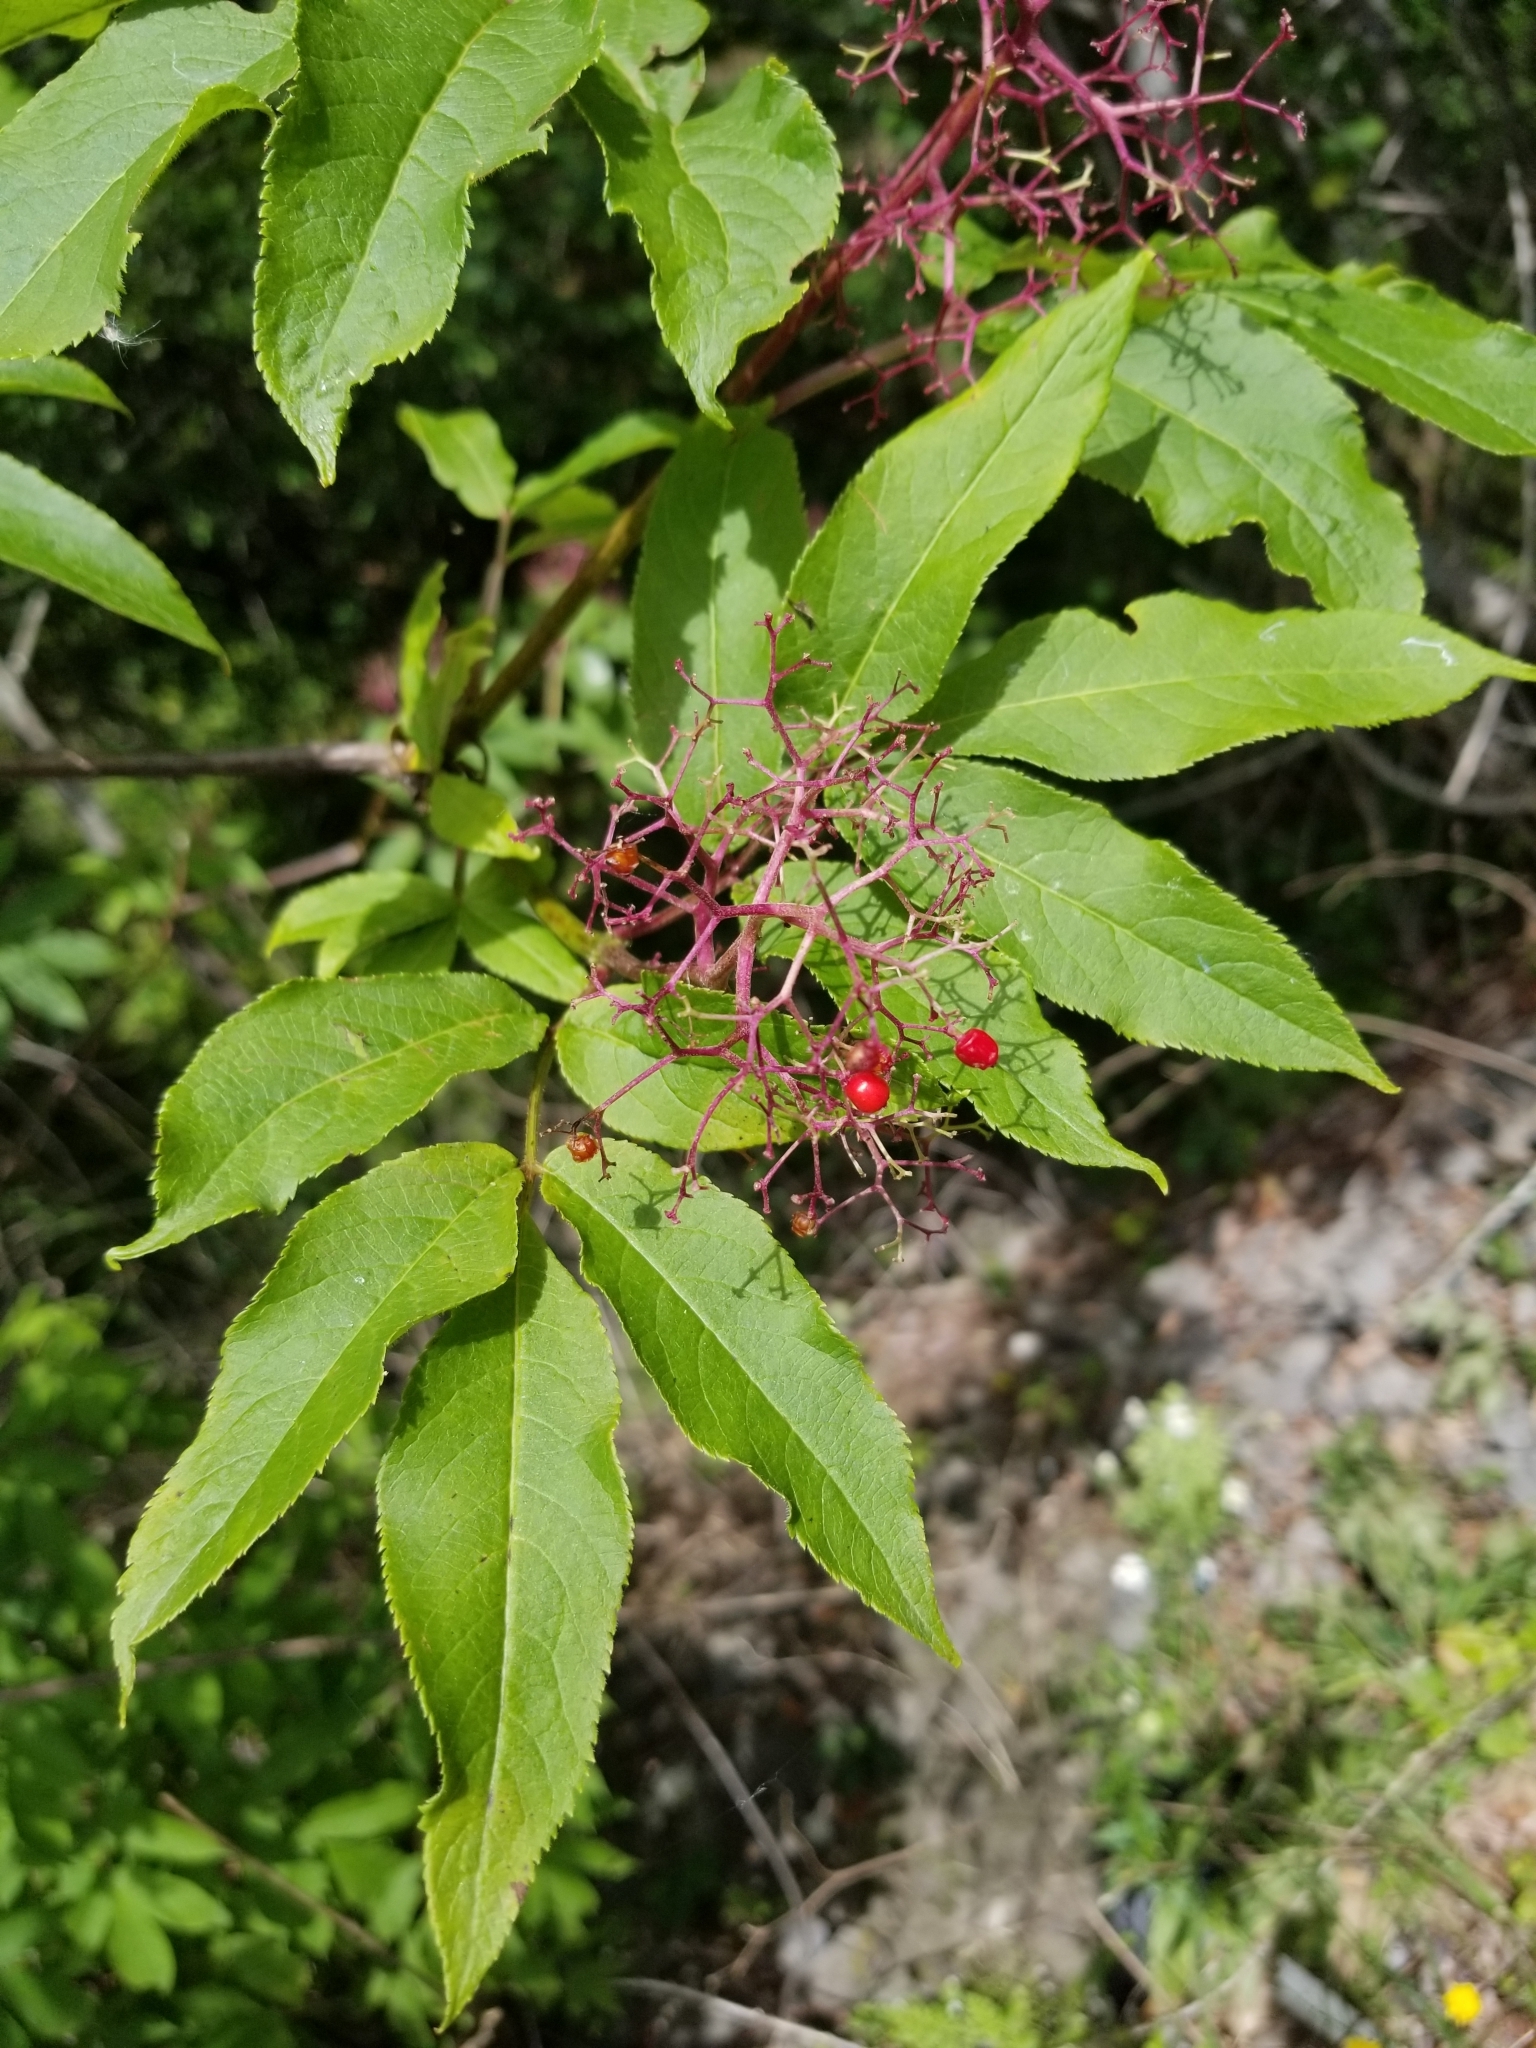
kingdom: Plantae
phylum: Tracheophyta
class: Magnoliopsida
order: Dipsacales
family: Viburnaceae
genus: Sambucus
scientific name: Sambucus racemosa
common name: Red-berried elder
